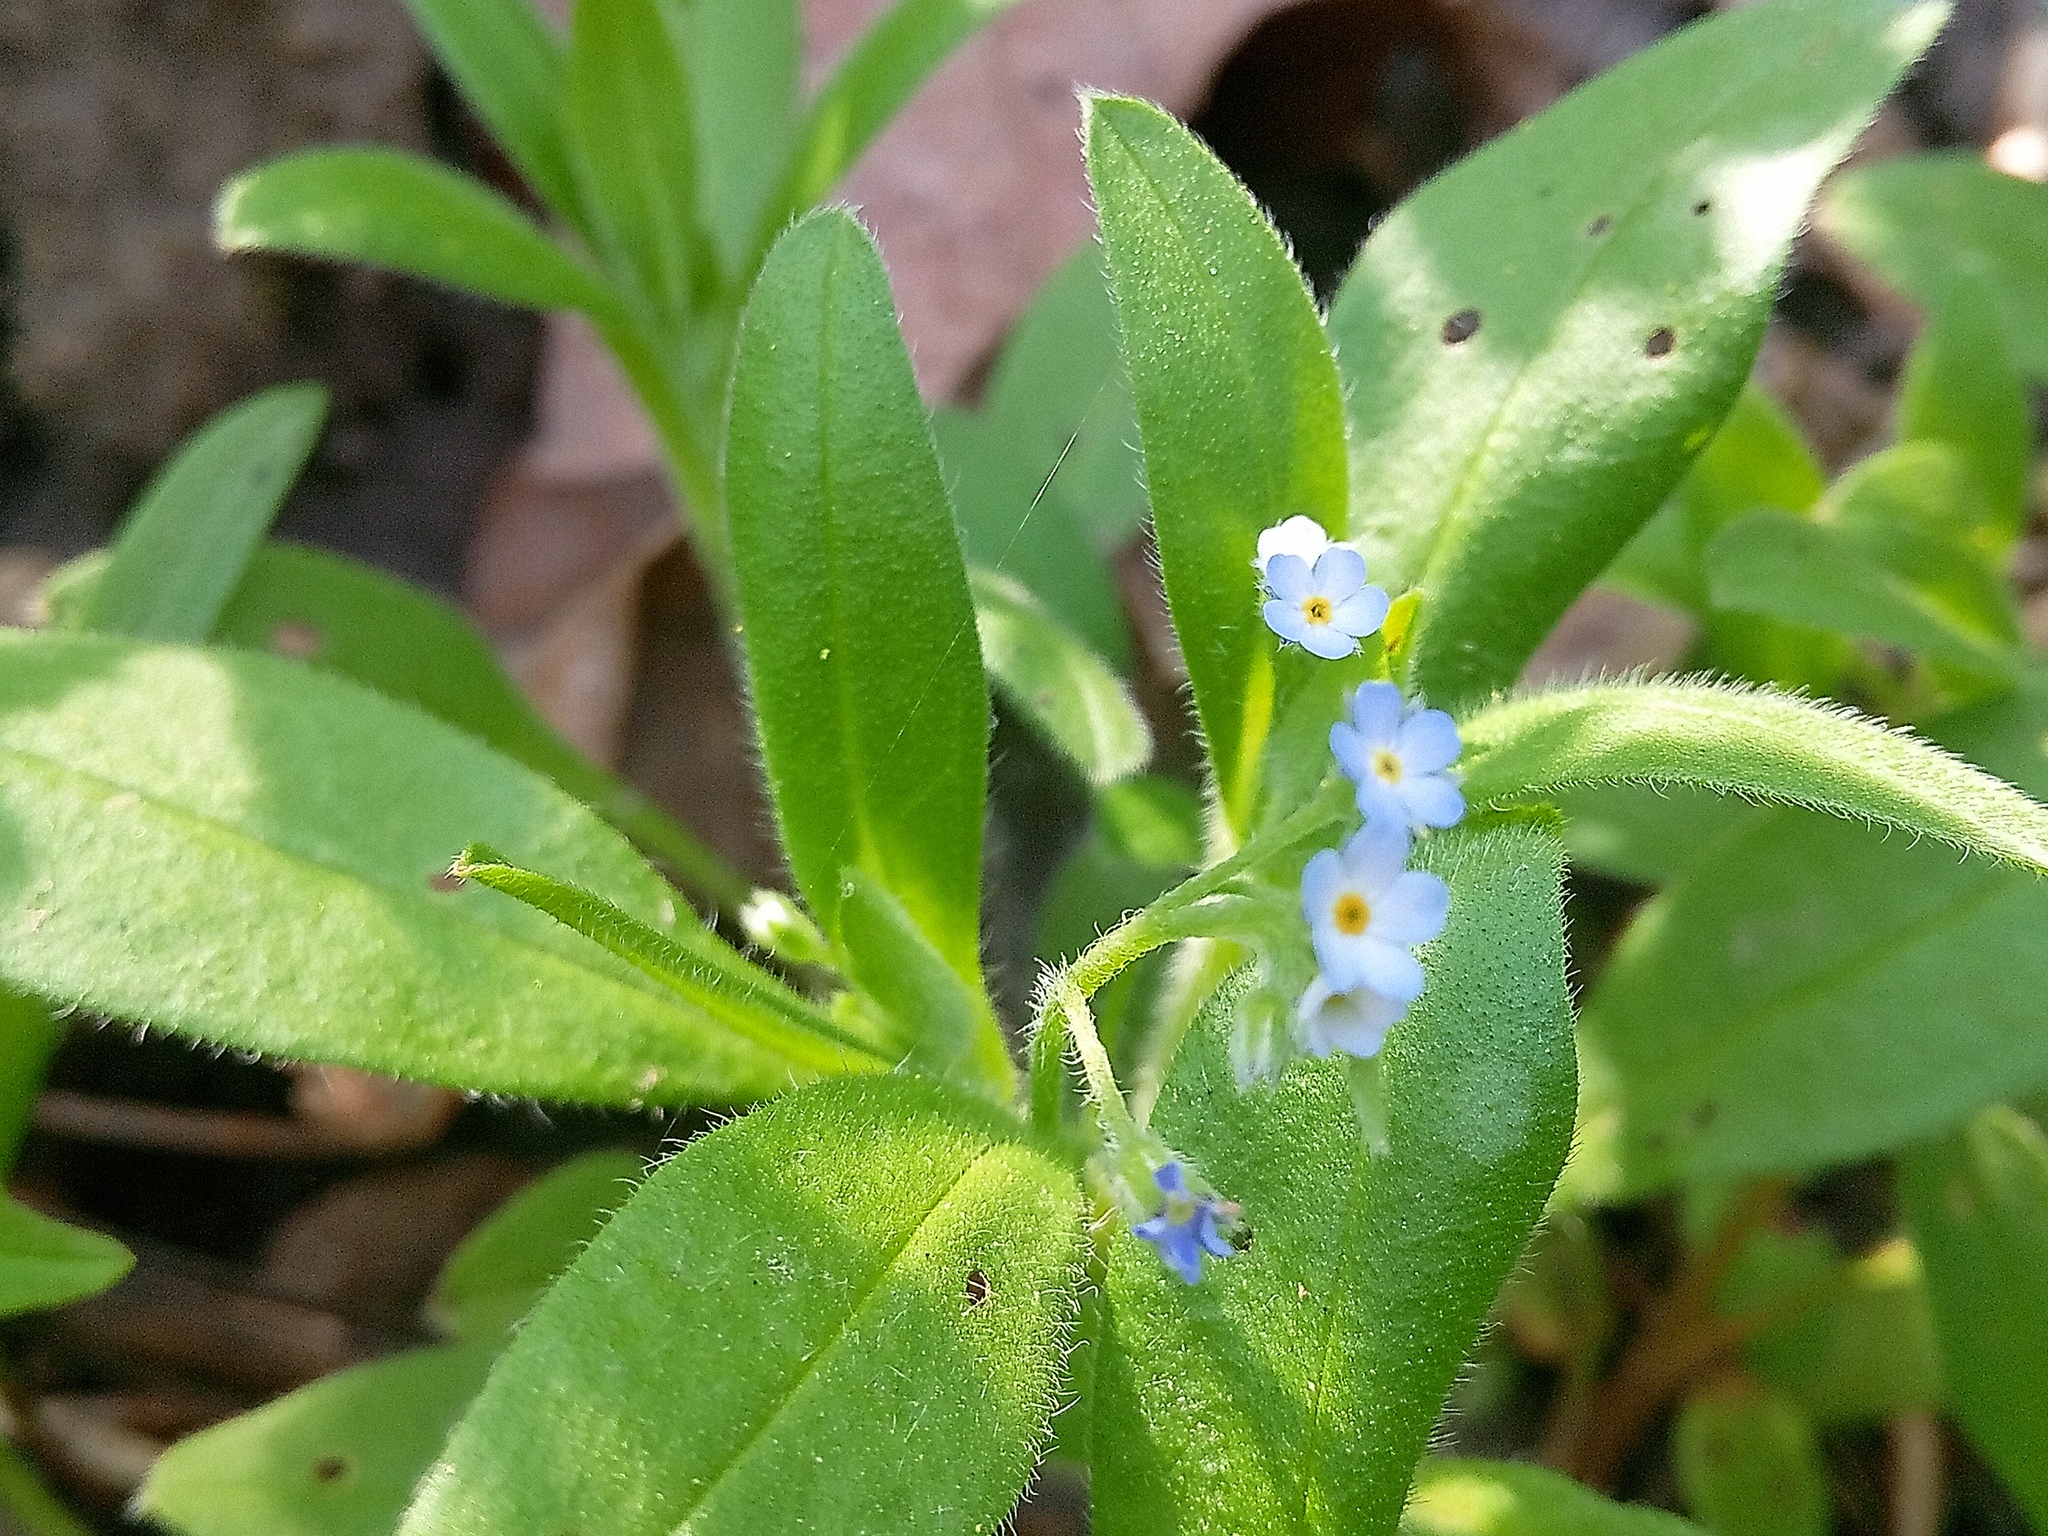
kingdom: Plantae
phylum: Tracheophyta
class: Magnoliopsida
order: Boraginales
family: Boraginaceae
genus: Myosotis
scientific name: Myosotis sparsiflora
